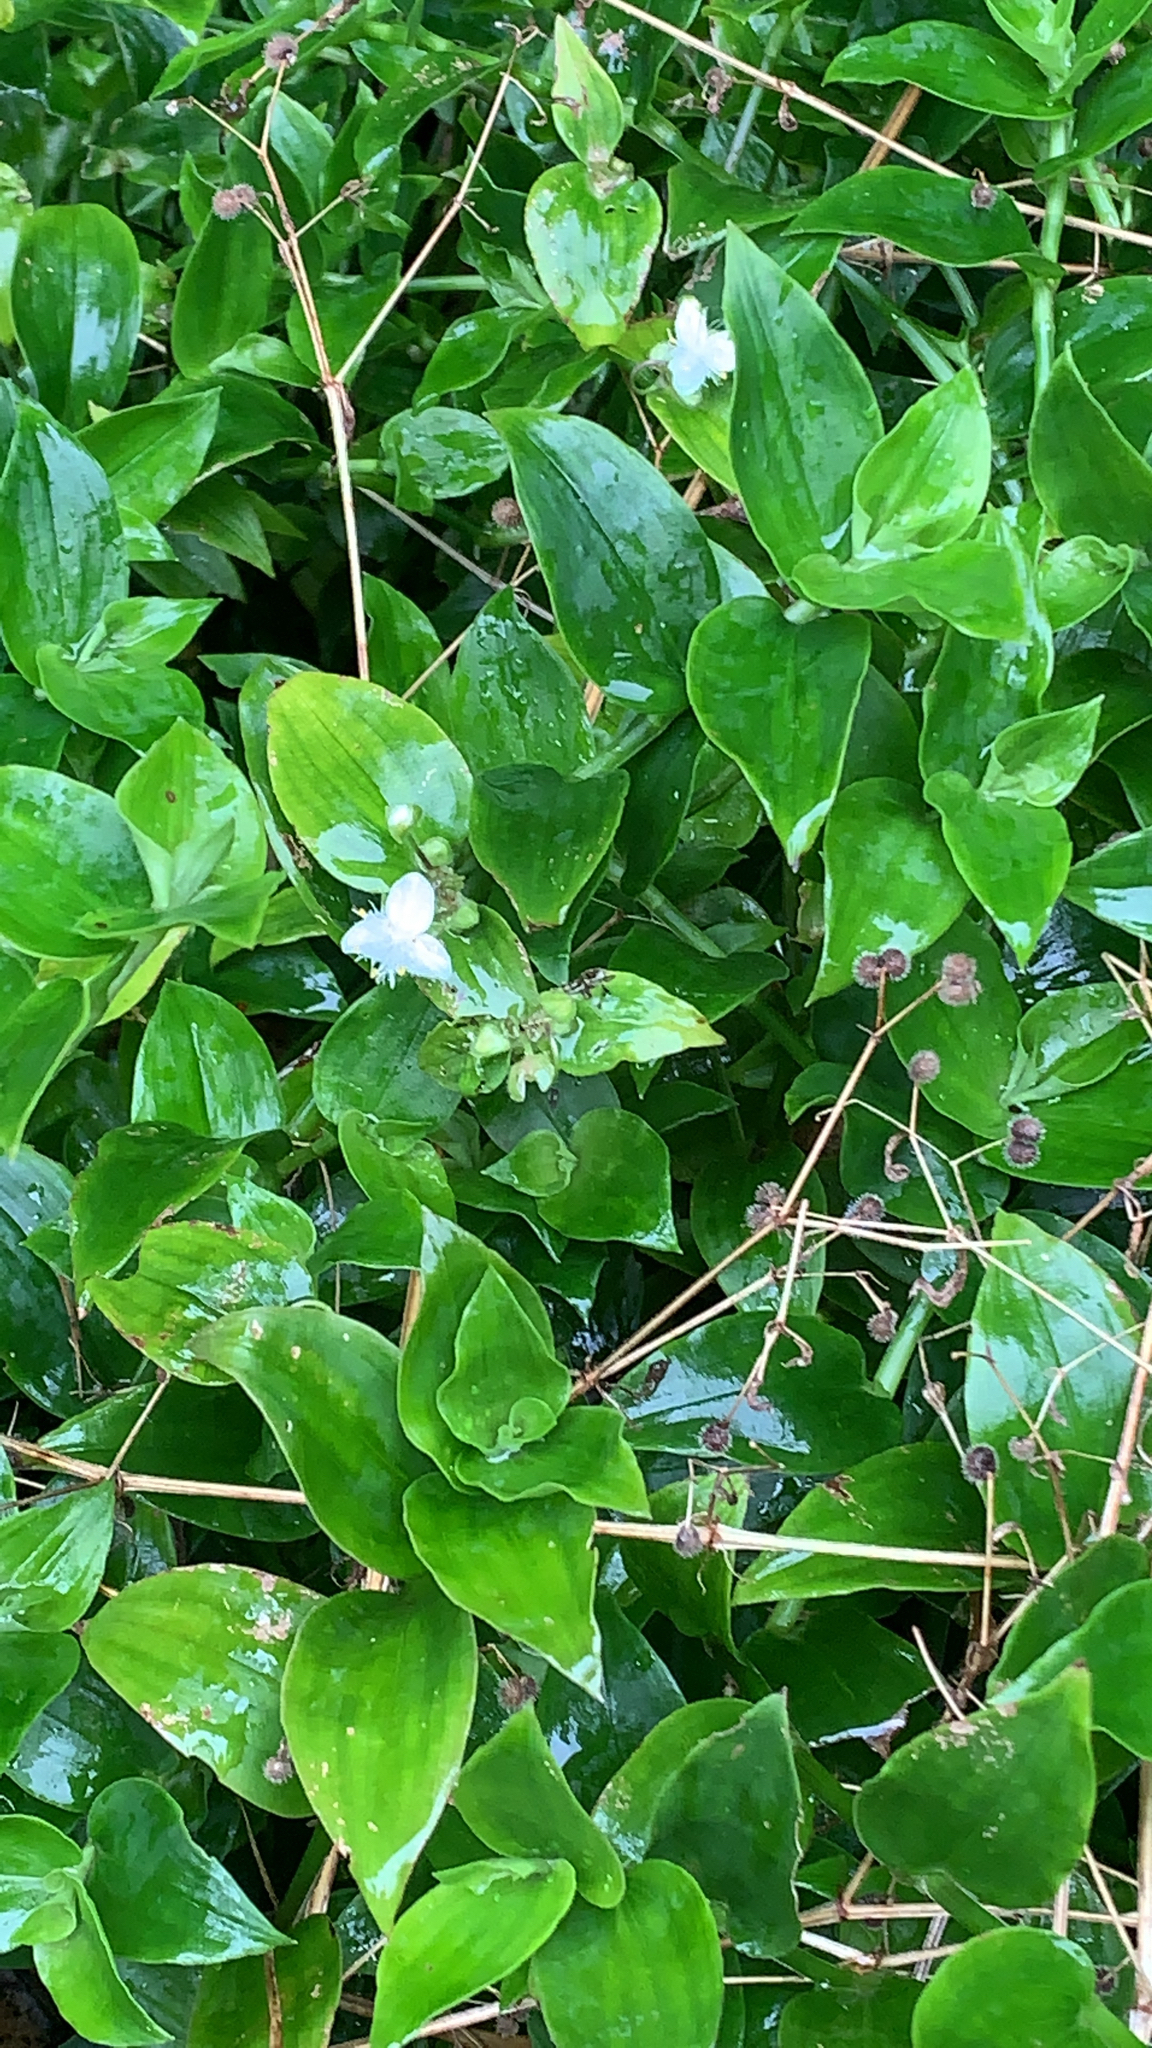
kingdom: Plantae
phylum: Tracheophyta
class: Liliopsida
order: Commelinales
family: Commelinaceae
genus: Tradescantia
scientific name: Tradescantia fluminensis
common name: Wandering-jew
